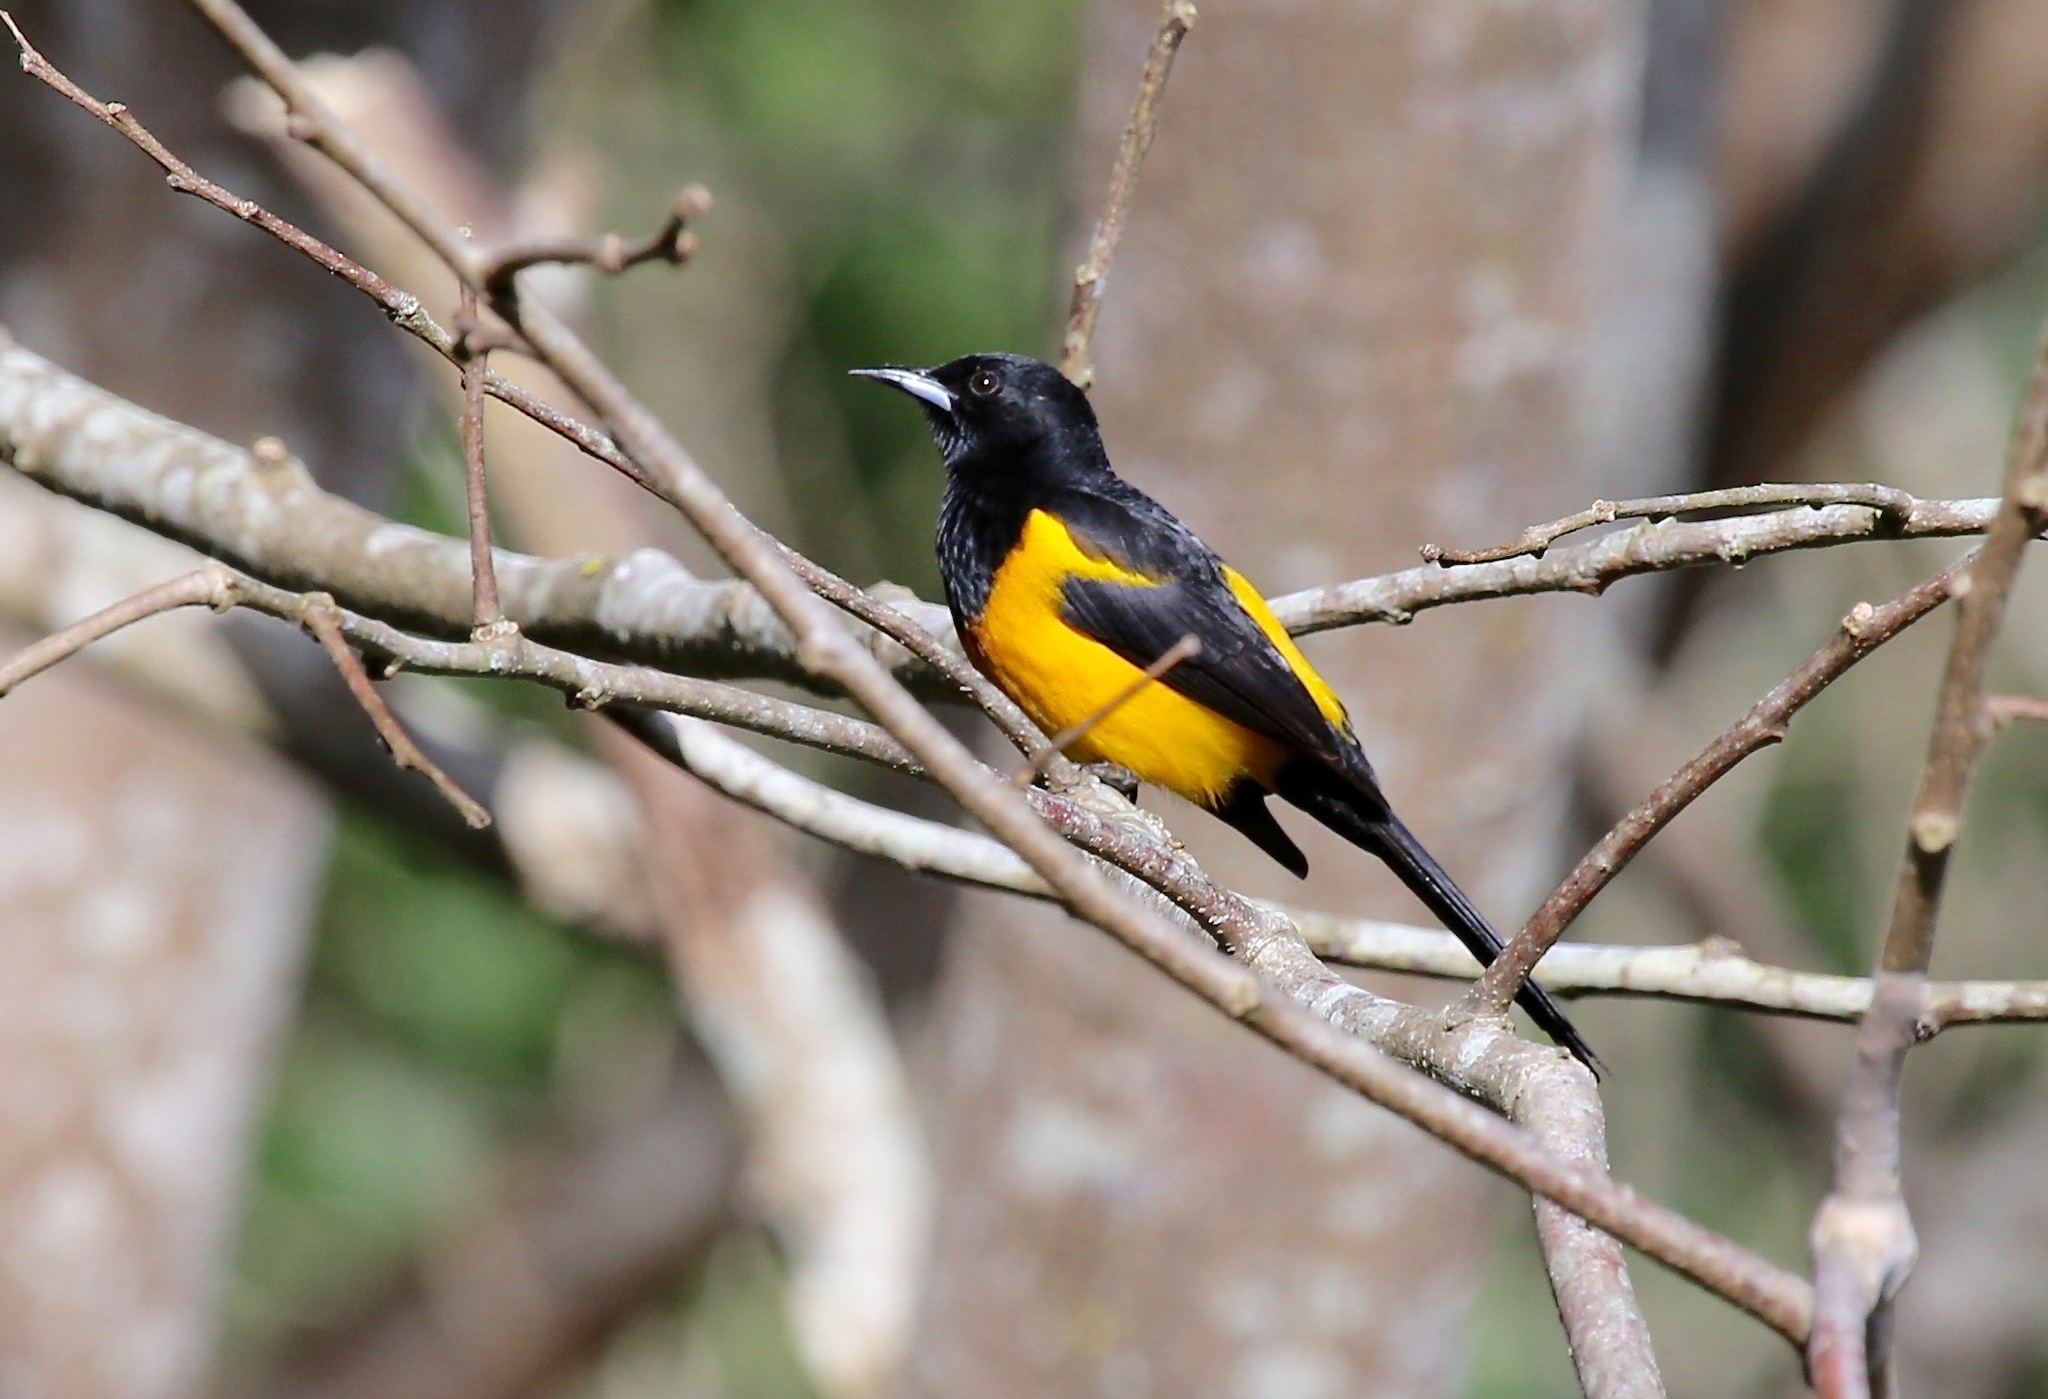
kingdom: Animalia
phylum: Chordata
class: Aves
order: Passeriformes
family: Icteridae
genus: Icterus
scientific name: Icterus wagleri
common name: Black-vented oriole
